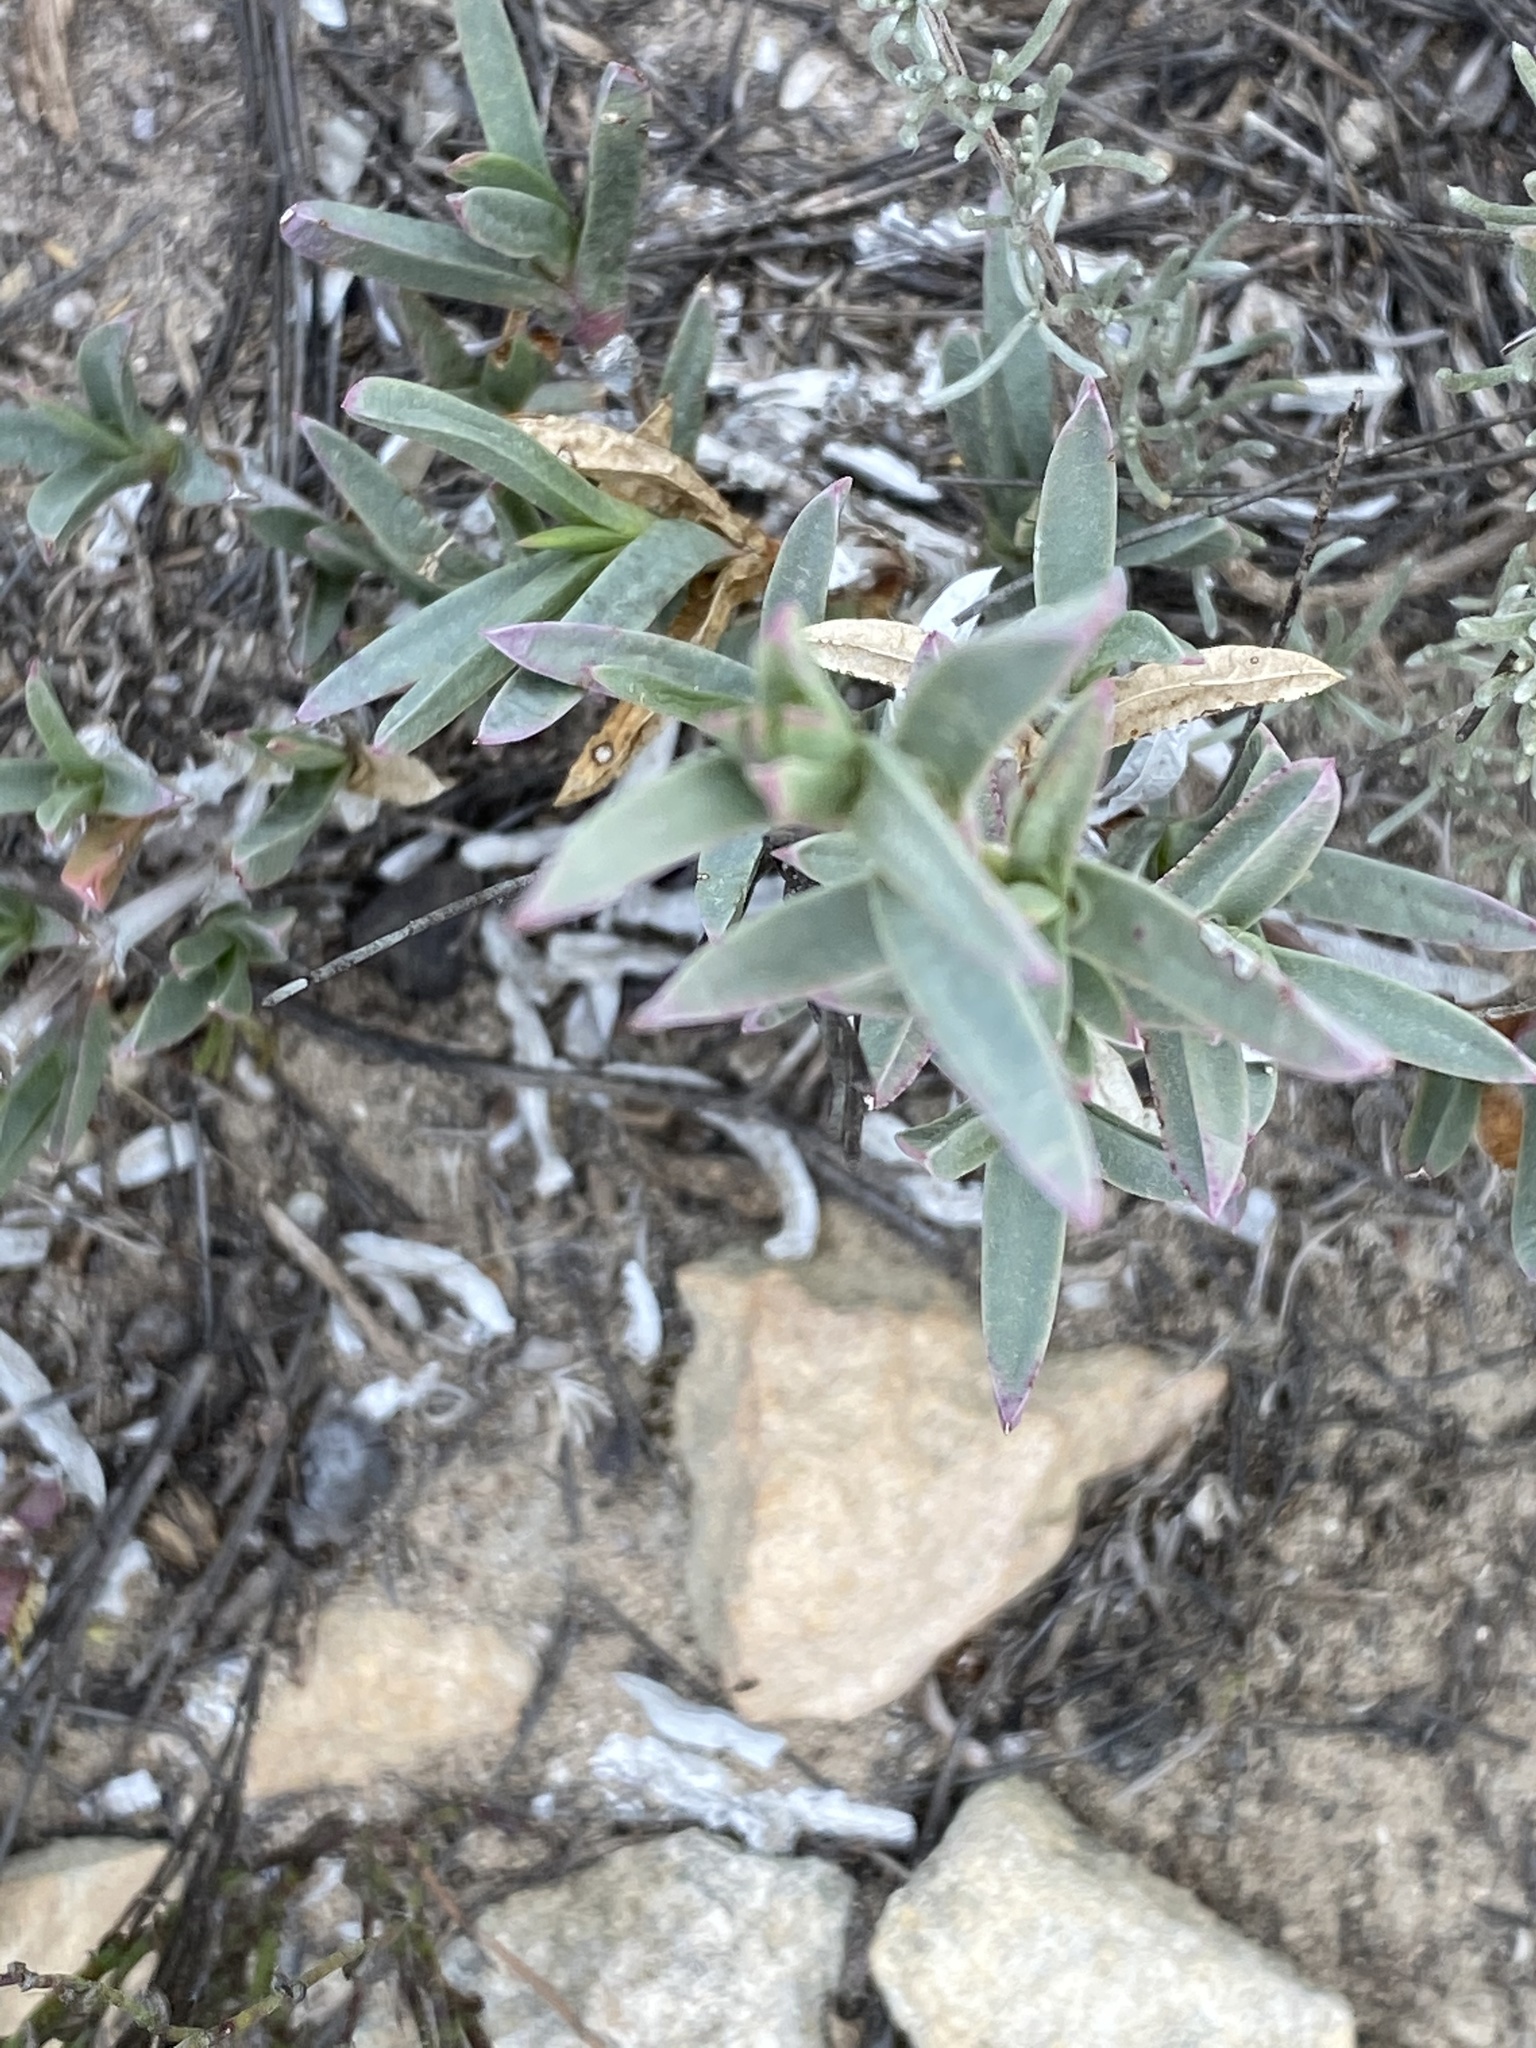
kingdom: Plantae
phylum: Tracheophyta
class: Magnoliopsida
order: Caryophyllales
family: Aizoaceae
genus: Ruschia
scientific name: Ruschia calcicola
